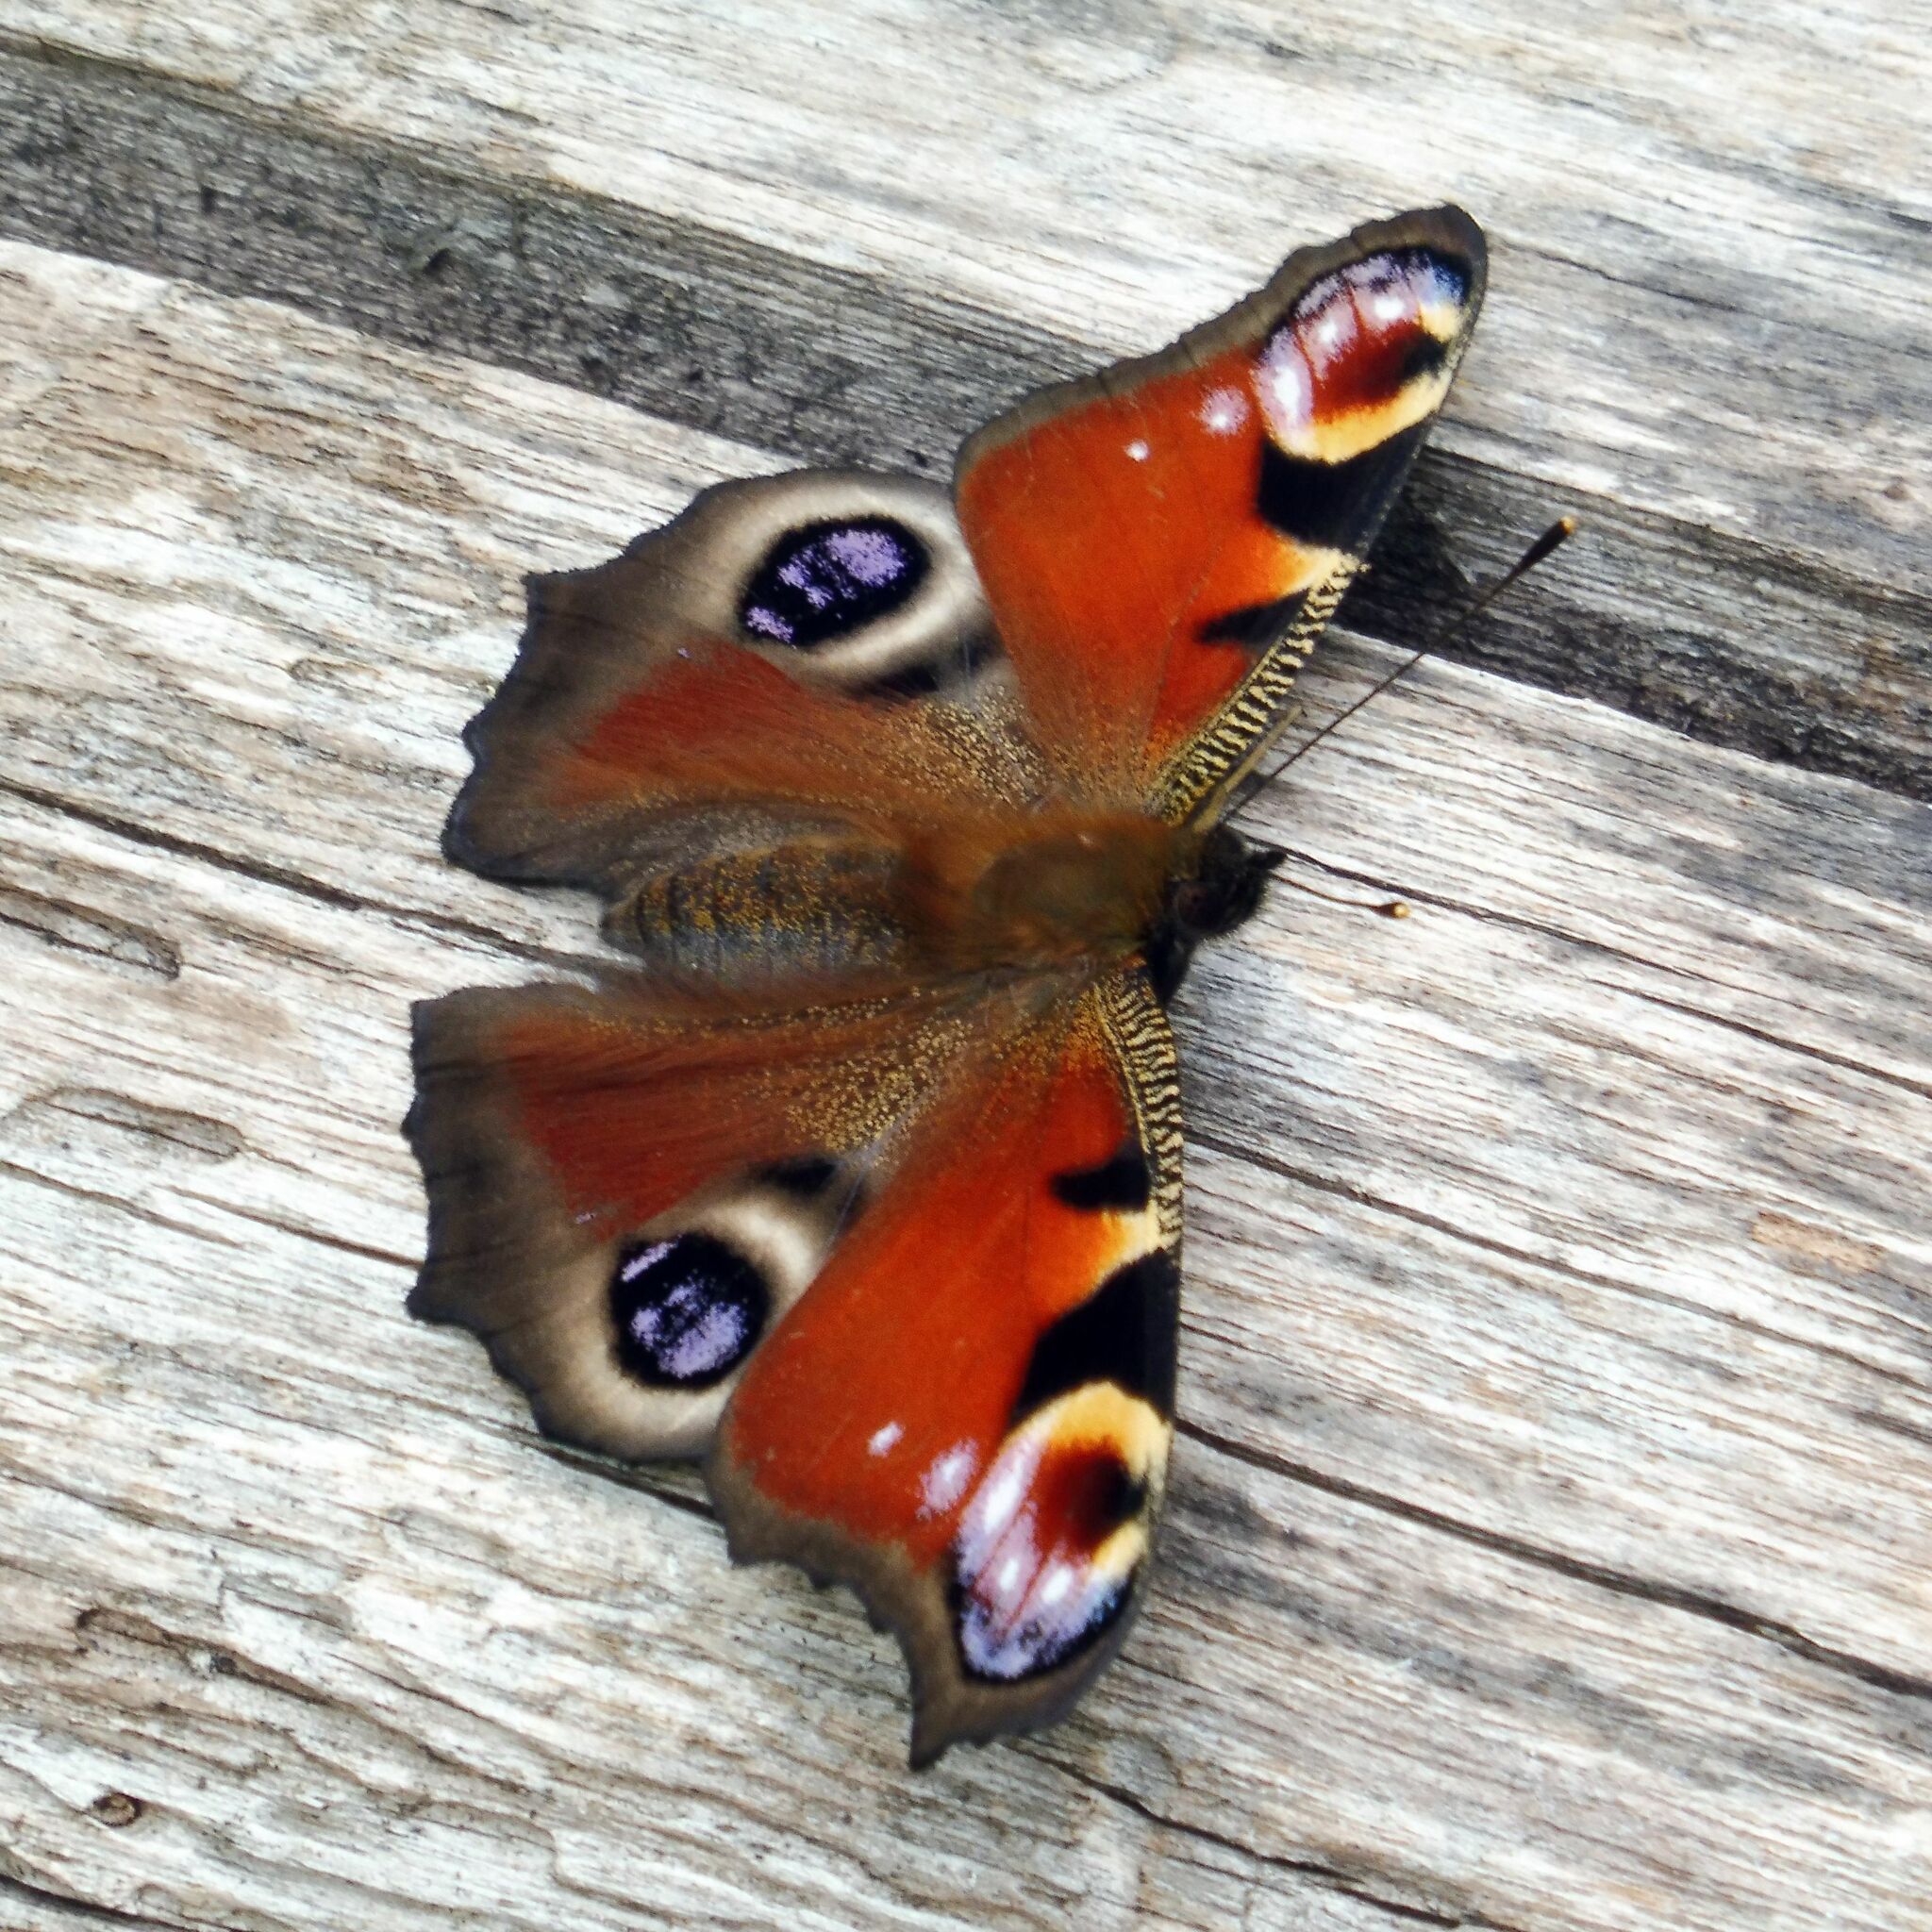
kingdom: Animalia
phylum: Arthropoda
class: Insecta
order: Lepidoptera
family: Nymphalidae
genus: Aglais
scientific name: Aglais io
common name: Peacock
